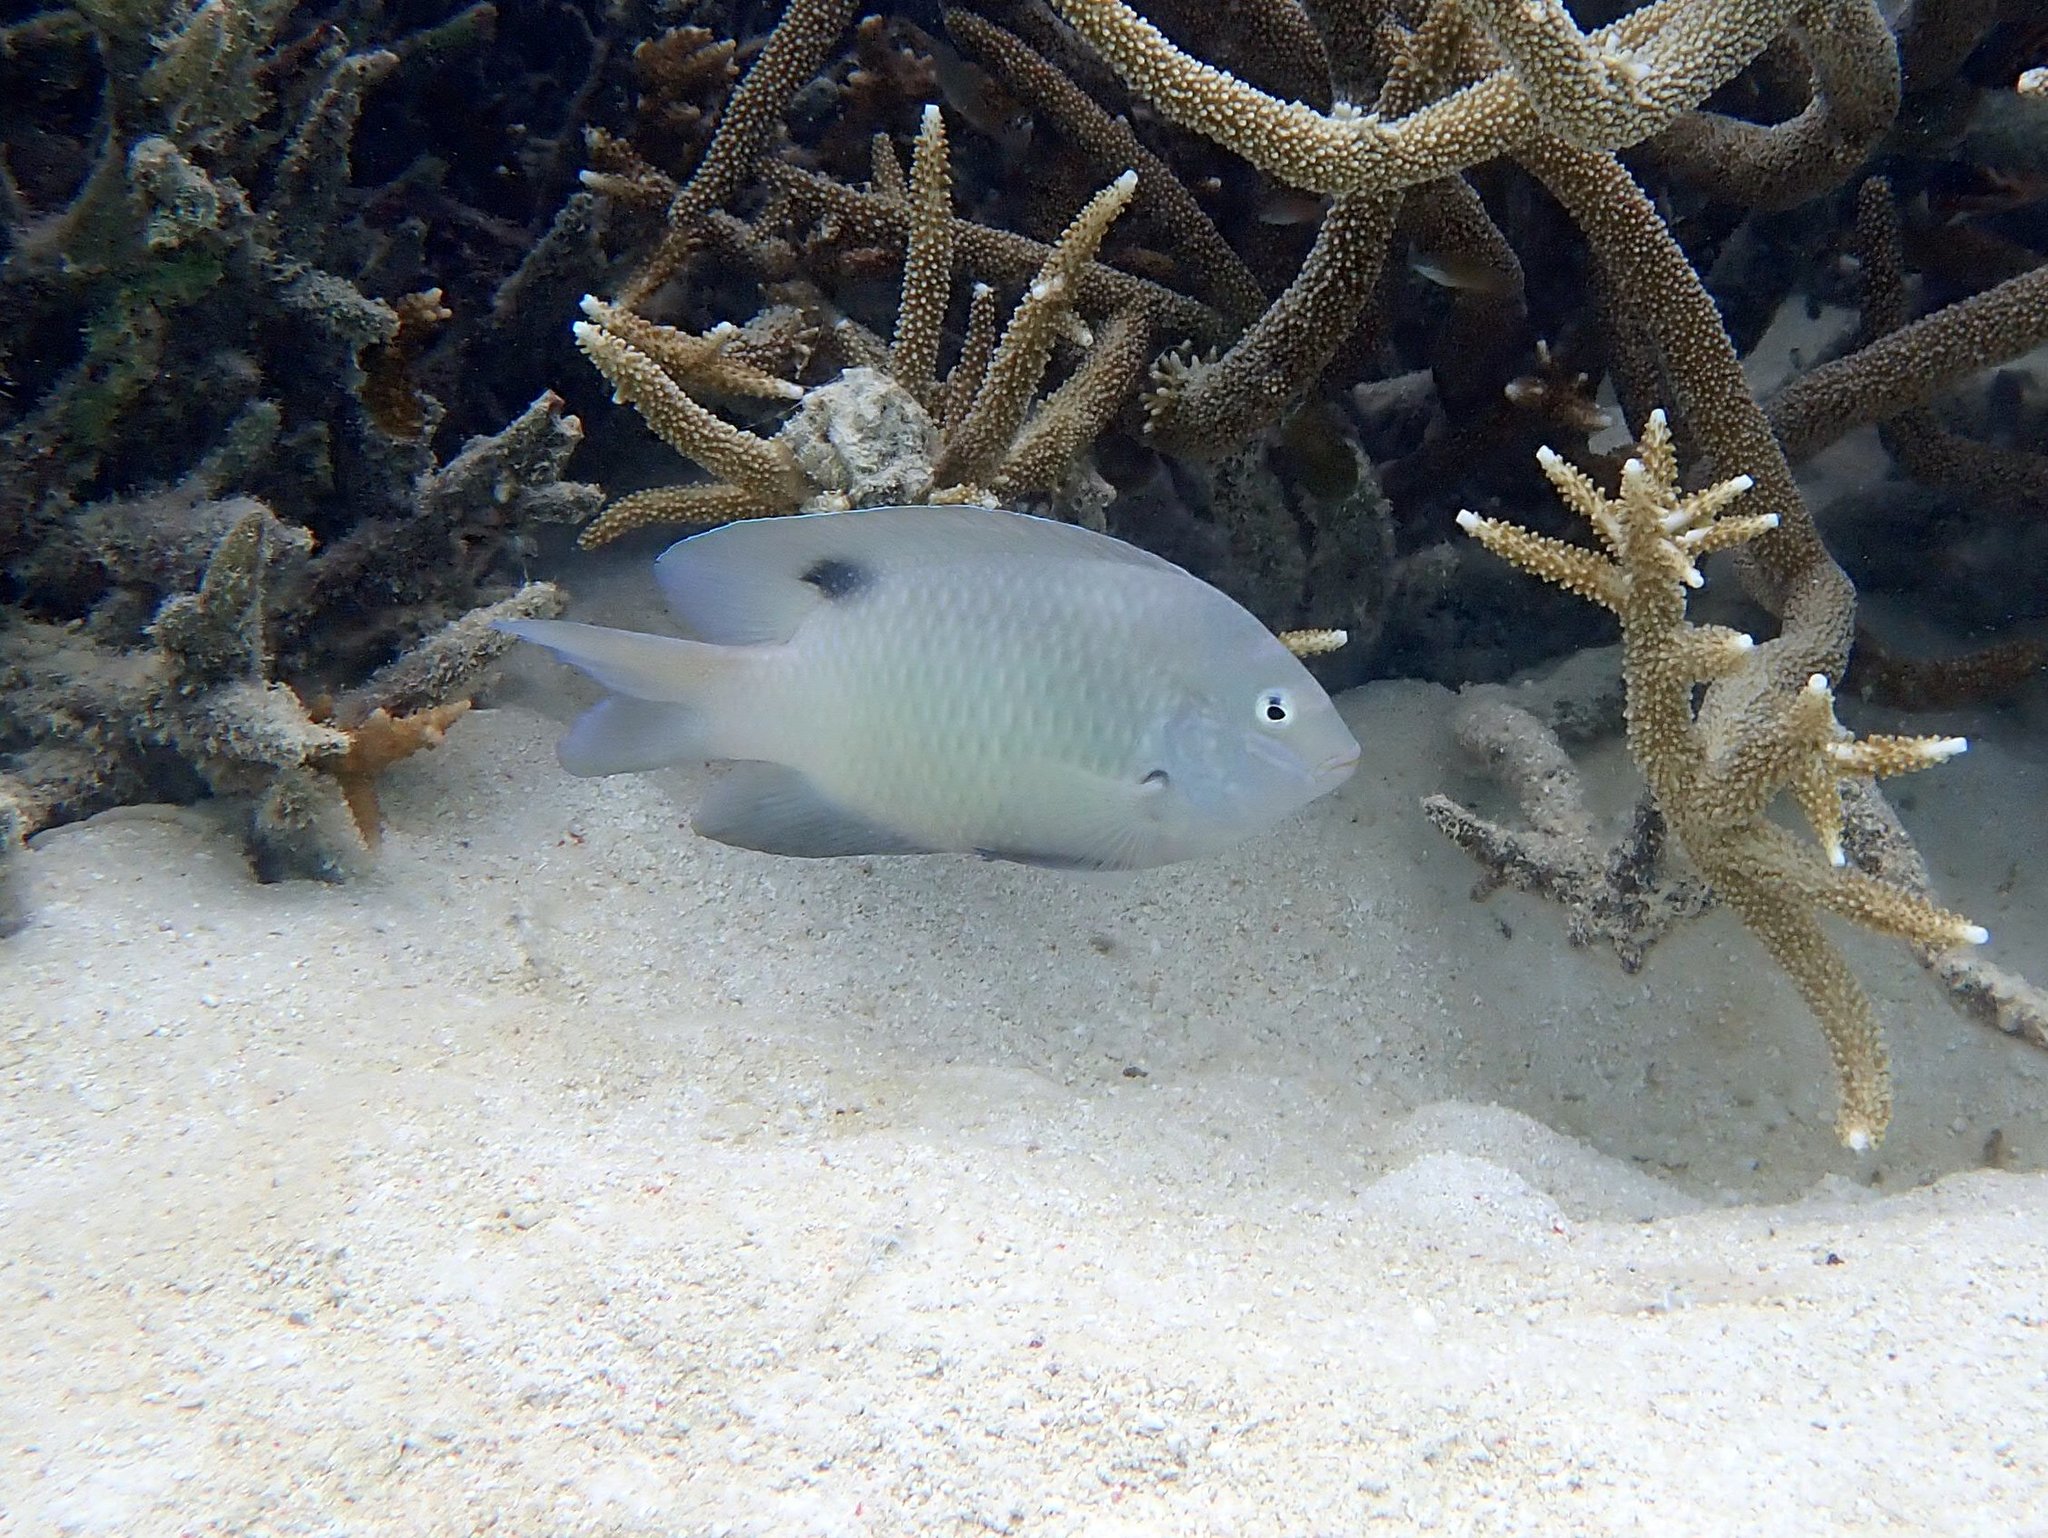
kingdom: Animalia
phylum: Chordata
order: Perciformes
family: Pomacentridae
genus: Dischistodus
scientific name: Dischistodus perspicillatus
